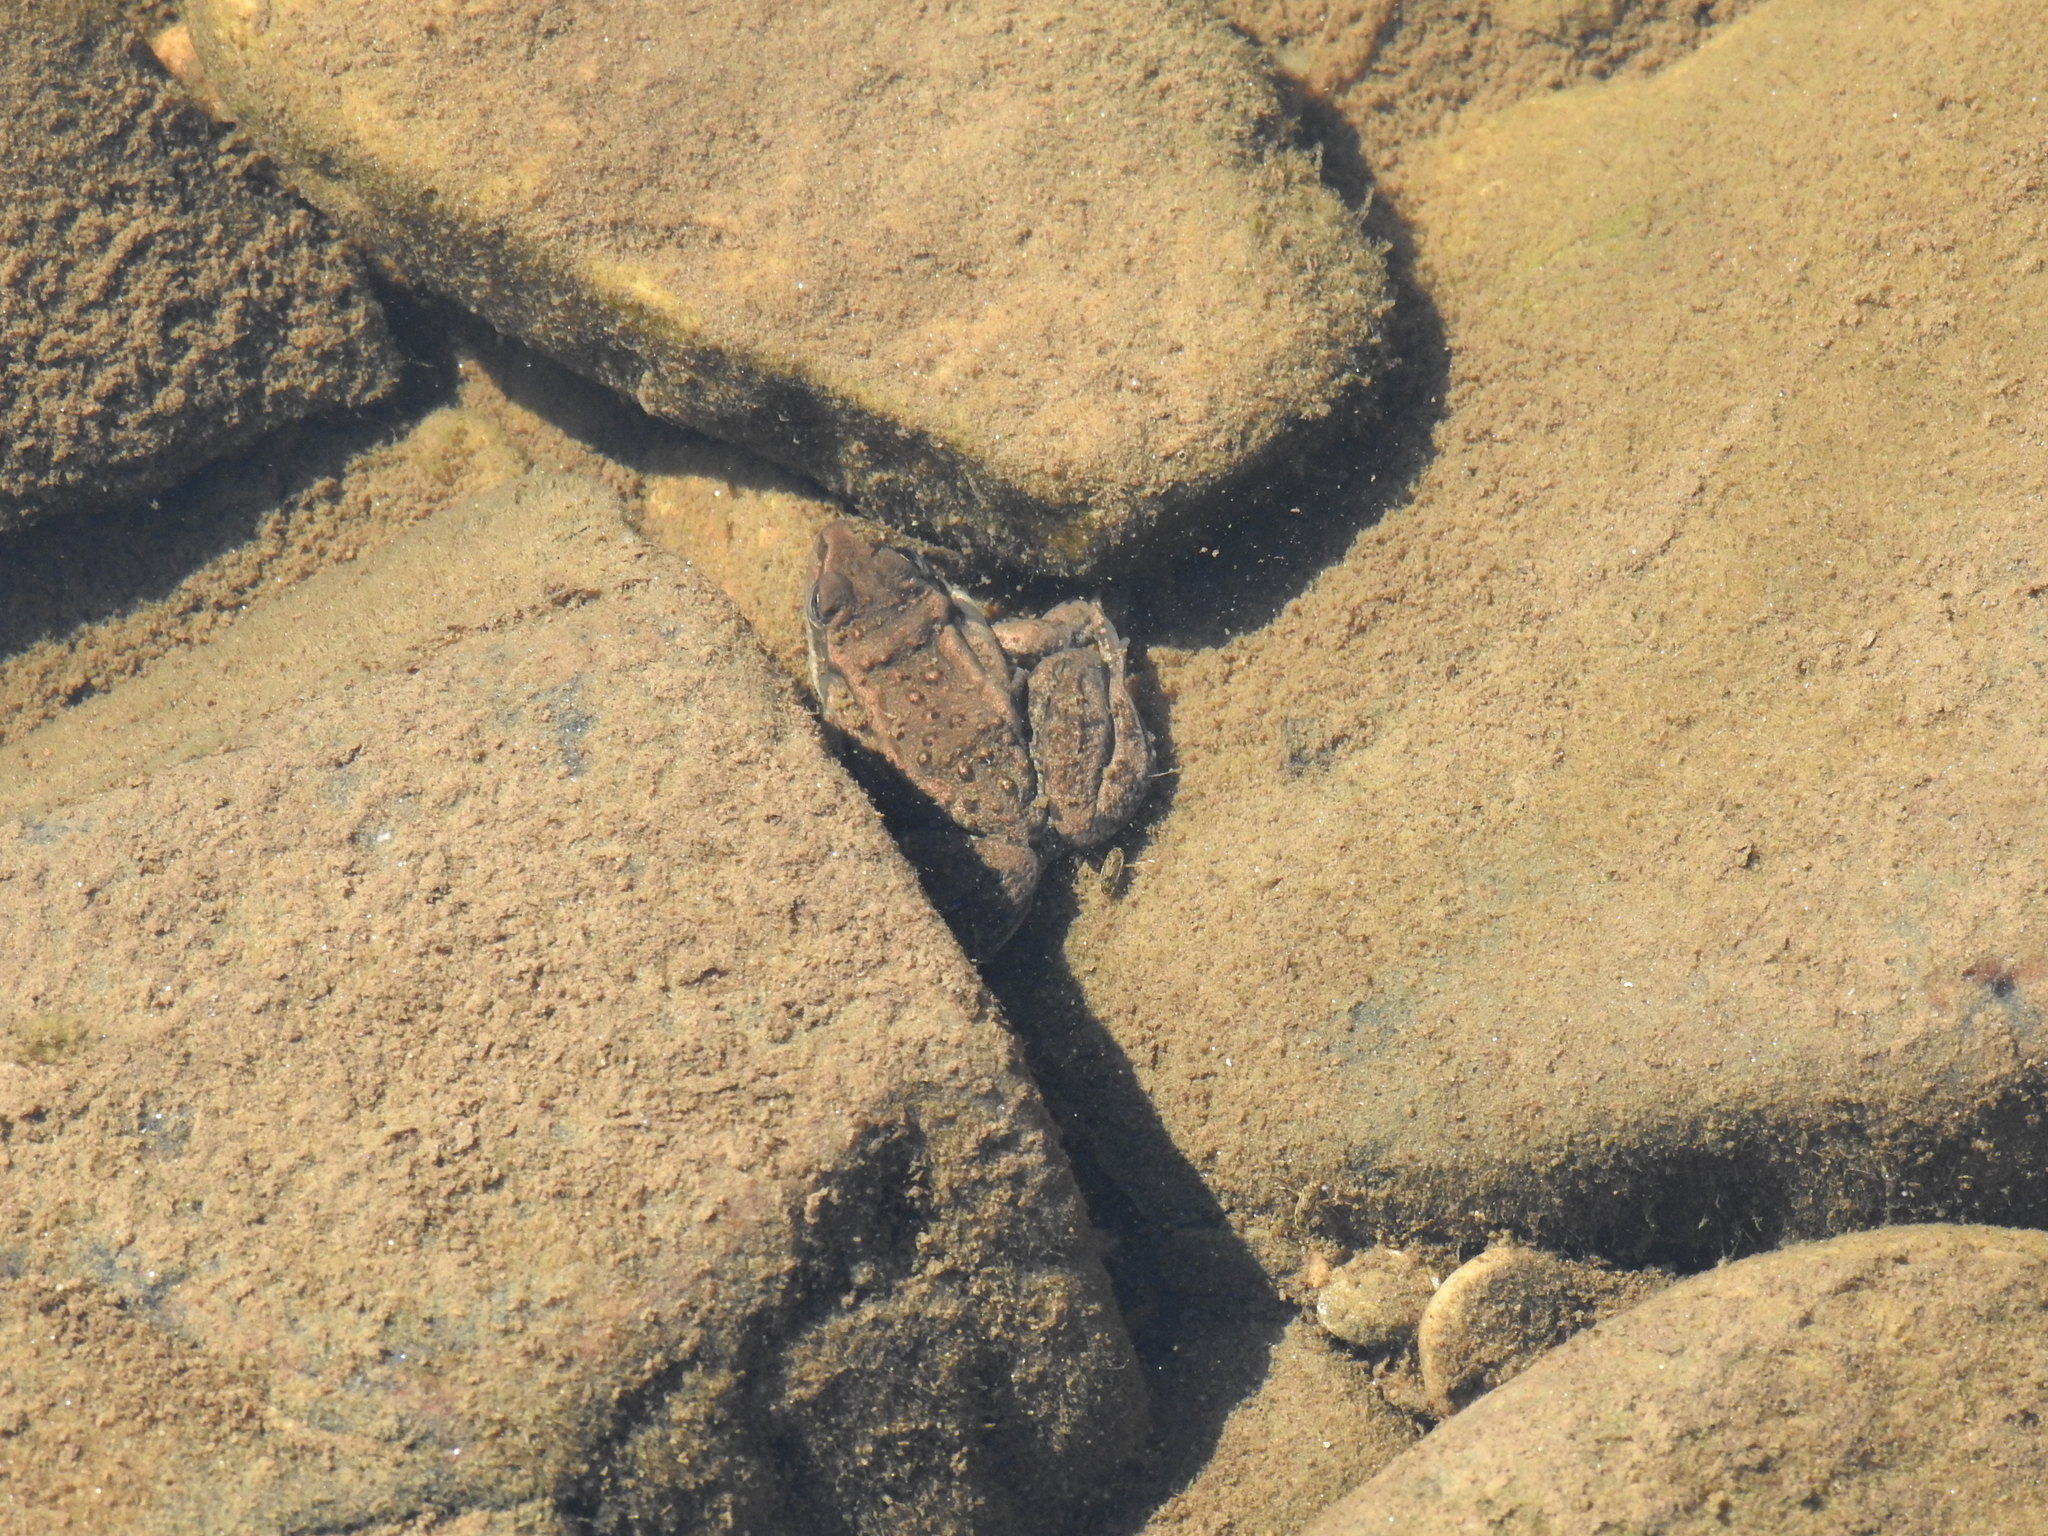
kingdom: Animalia
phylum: Chordata
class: Amphibia
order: Anura
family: Ranidae
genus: Rana
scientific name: Rana luteiventris
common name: Columbia spotted frog
